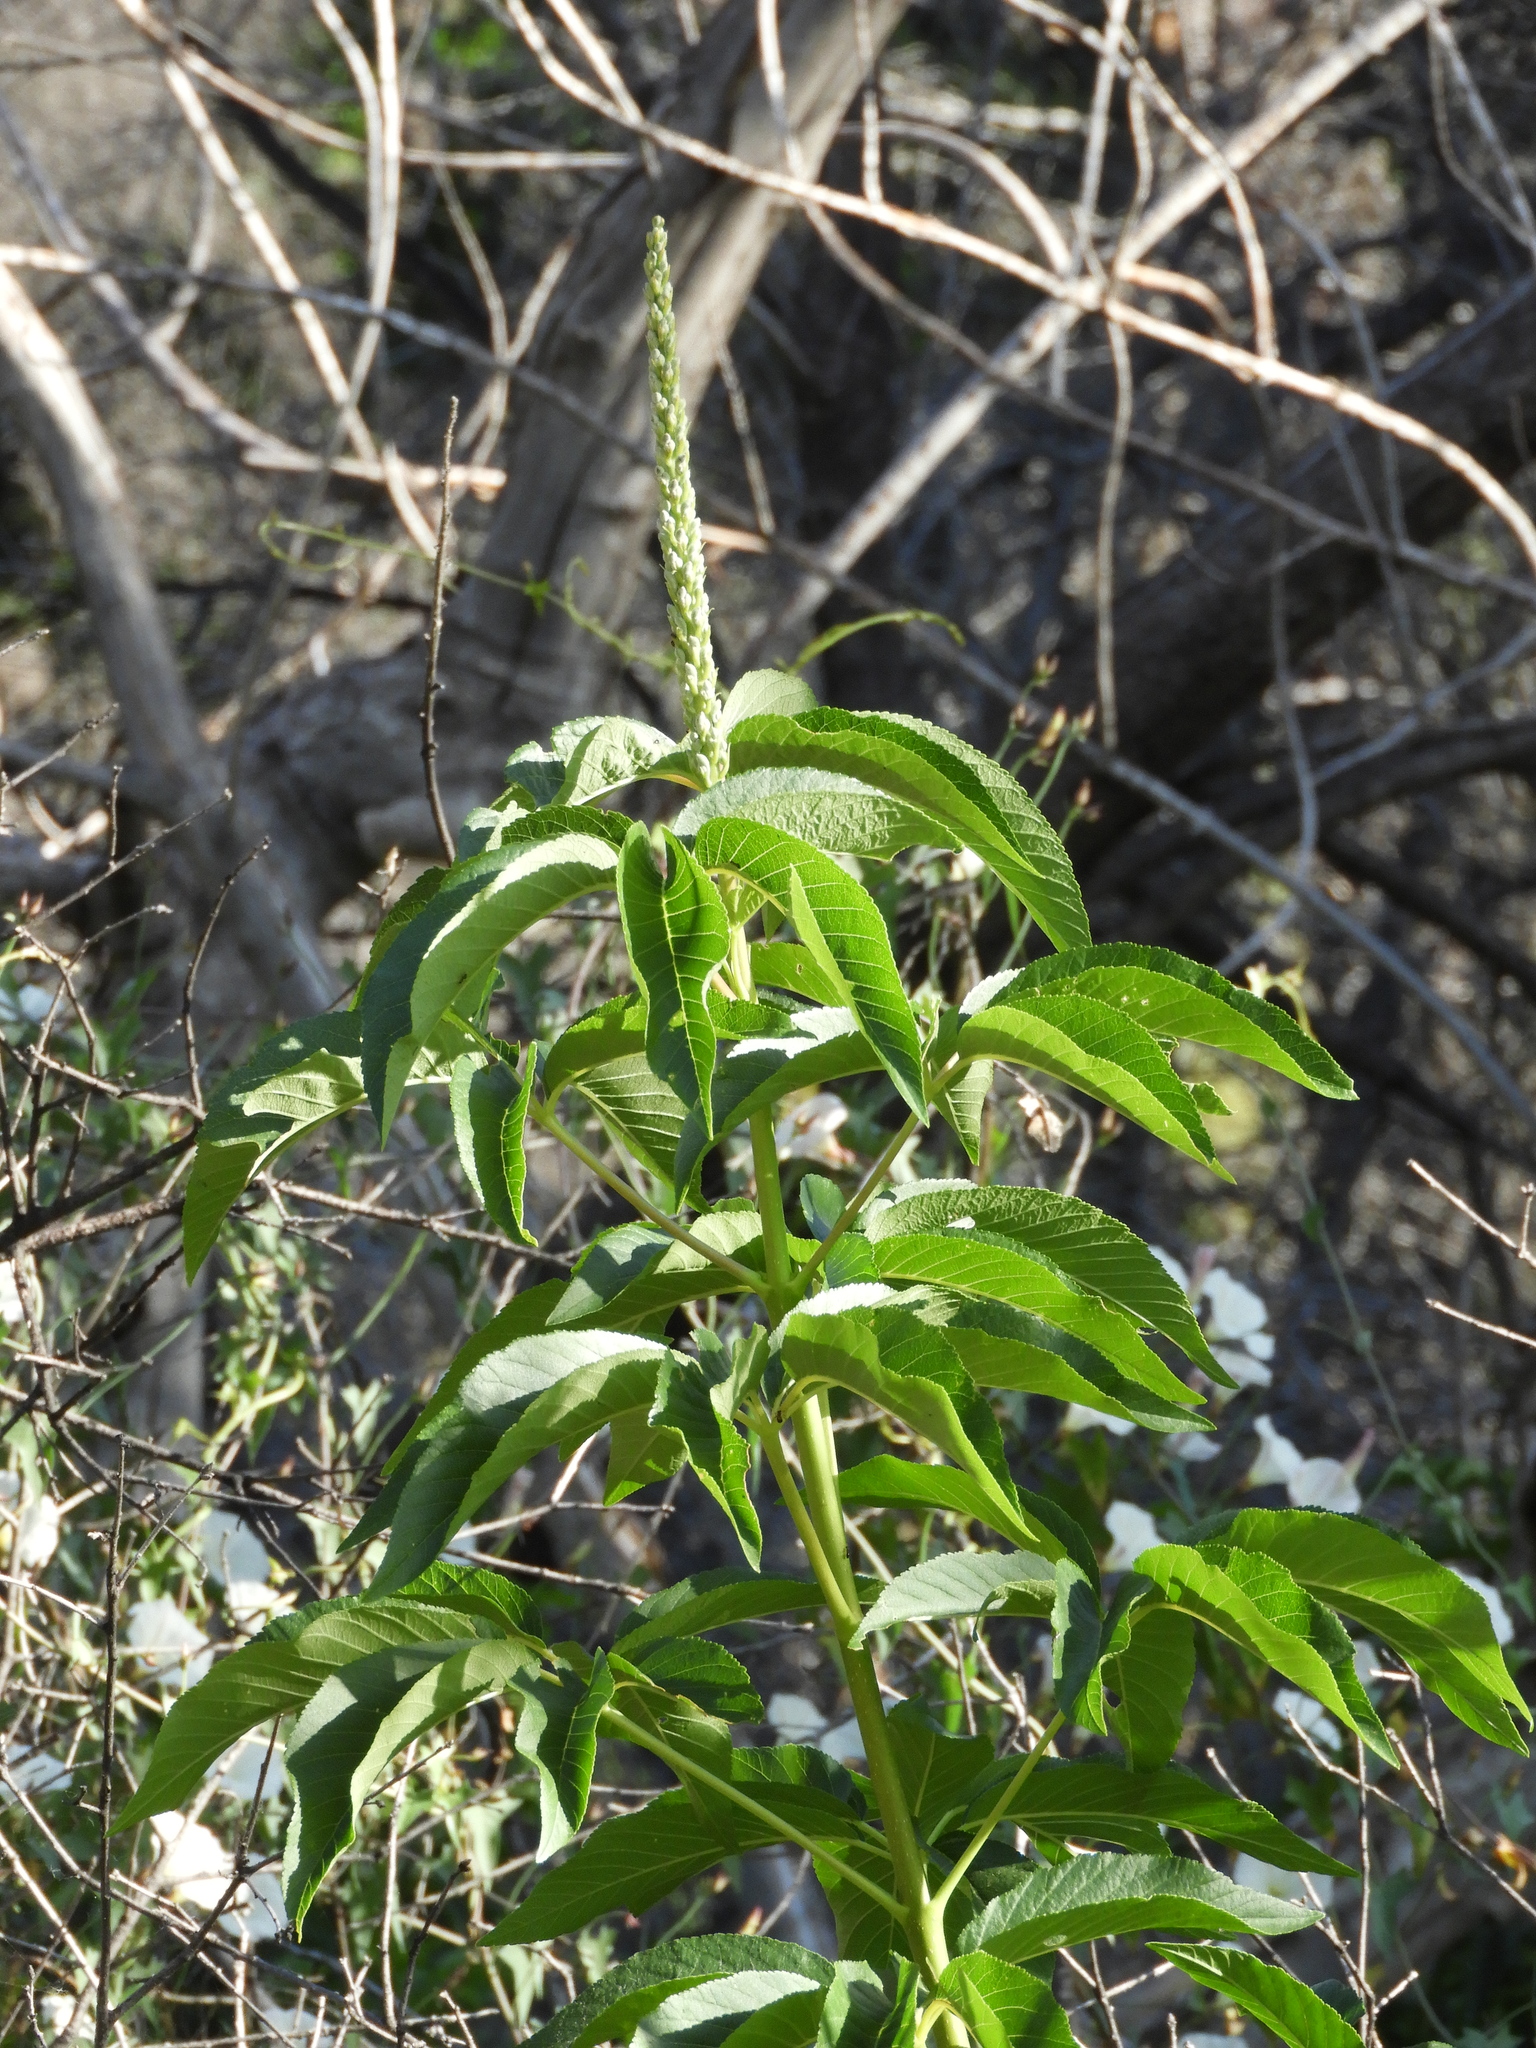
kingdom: Plantae
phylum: Tracheophyta
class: Magnoliopsida
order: Sapindales
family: Sapindaceae
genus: Aesculus
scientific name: Aesculus californica
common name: California buckeye
